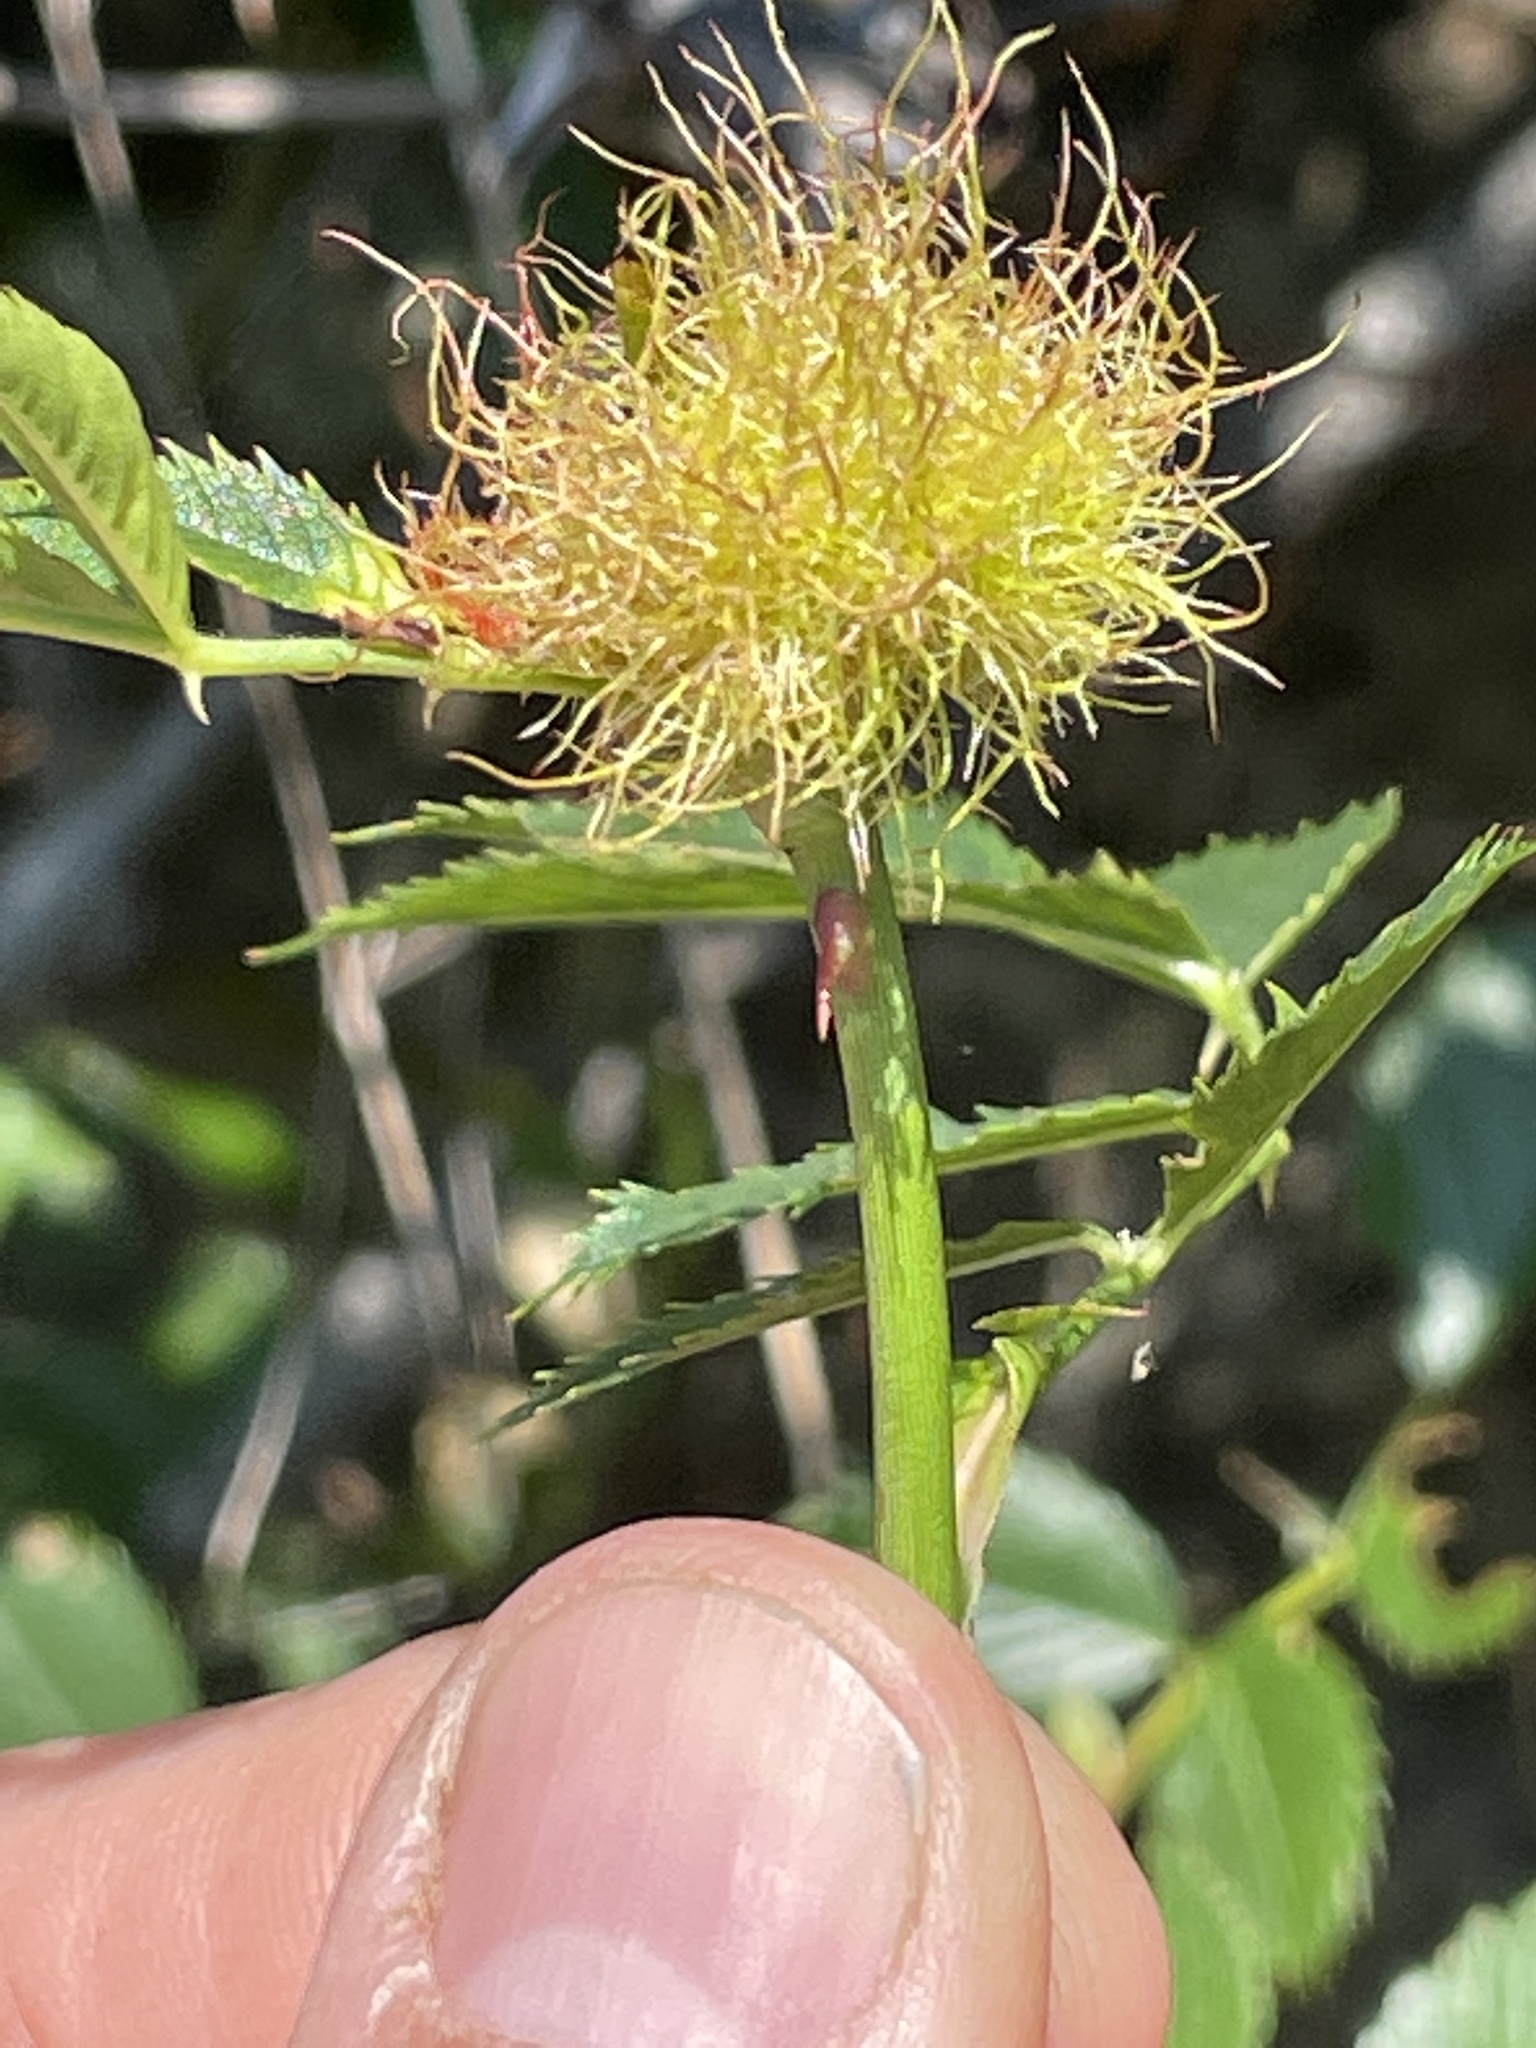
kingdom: Animalia
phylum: Arthropoda
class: Insecta
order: Hymenoptera
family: Cynipidae
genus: Diplolepis
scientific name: Diplolepis rosae
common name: Bedeguar gall
